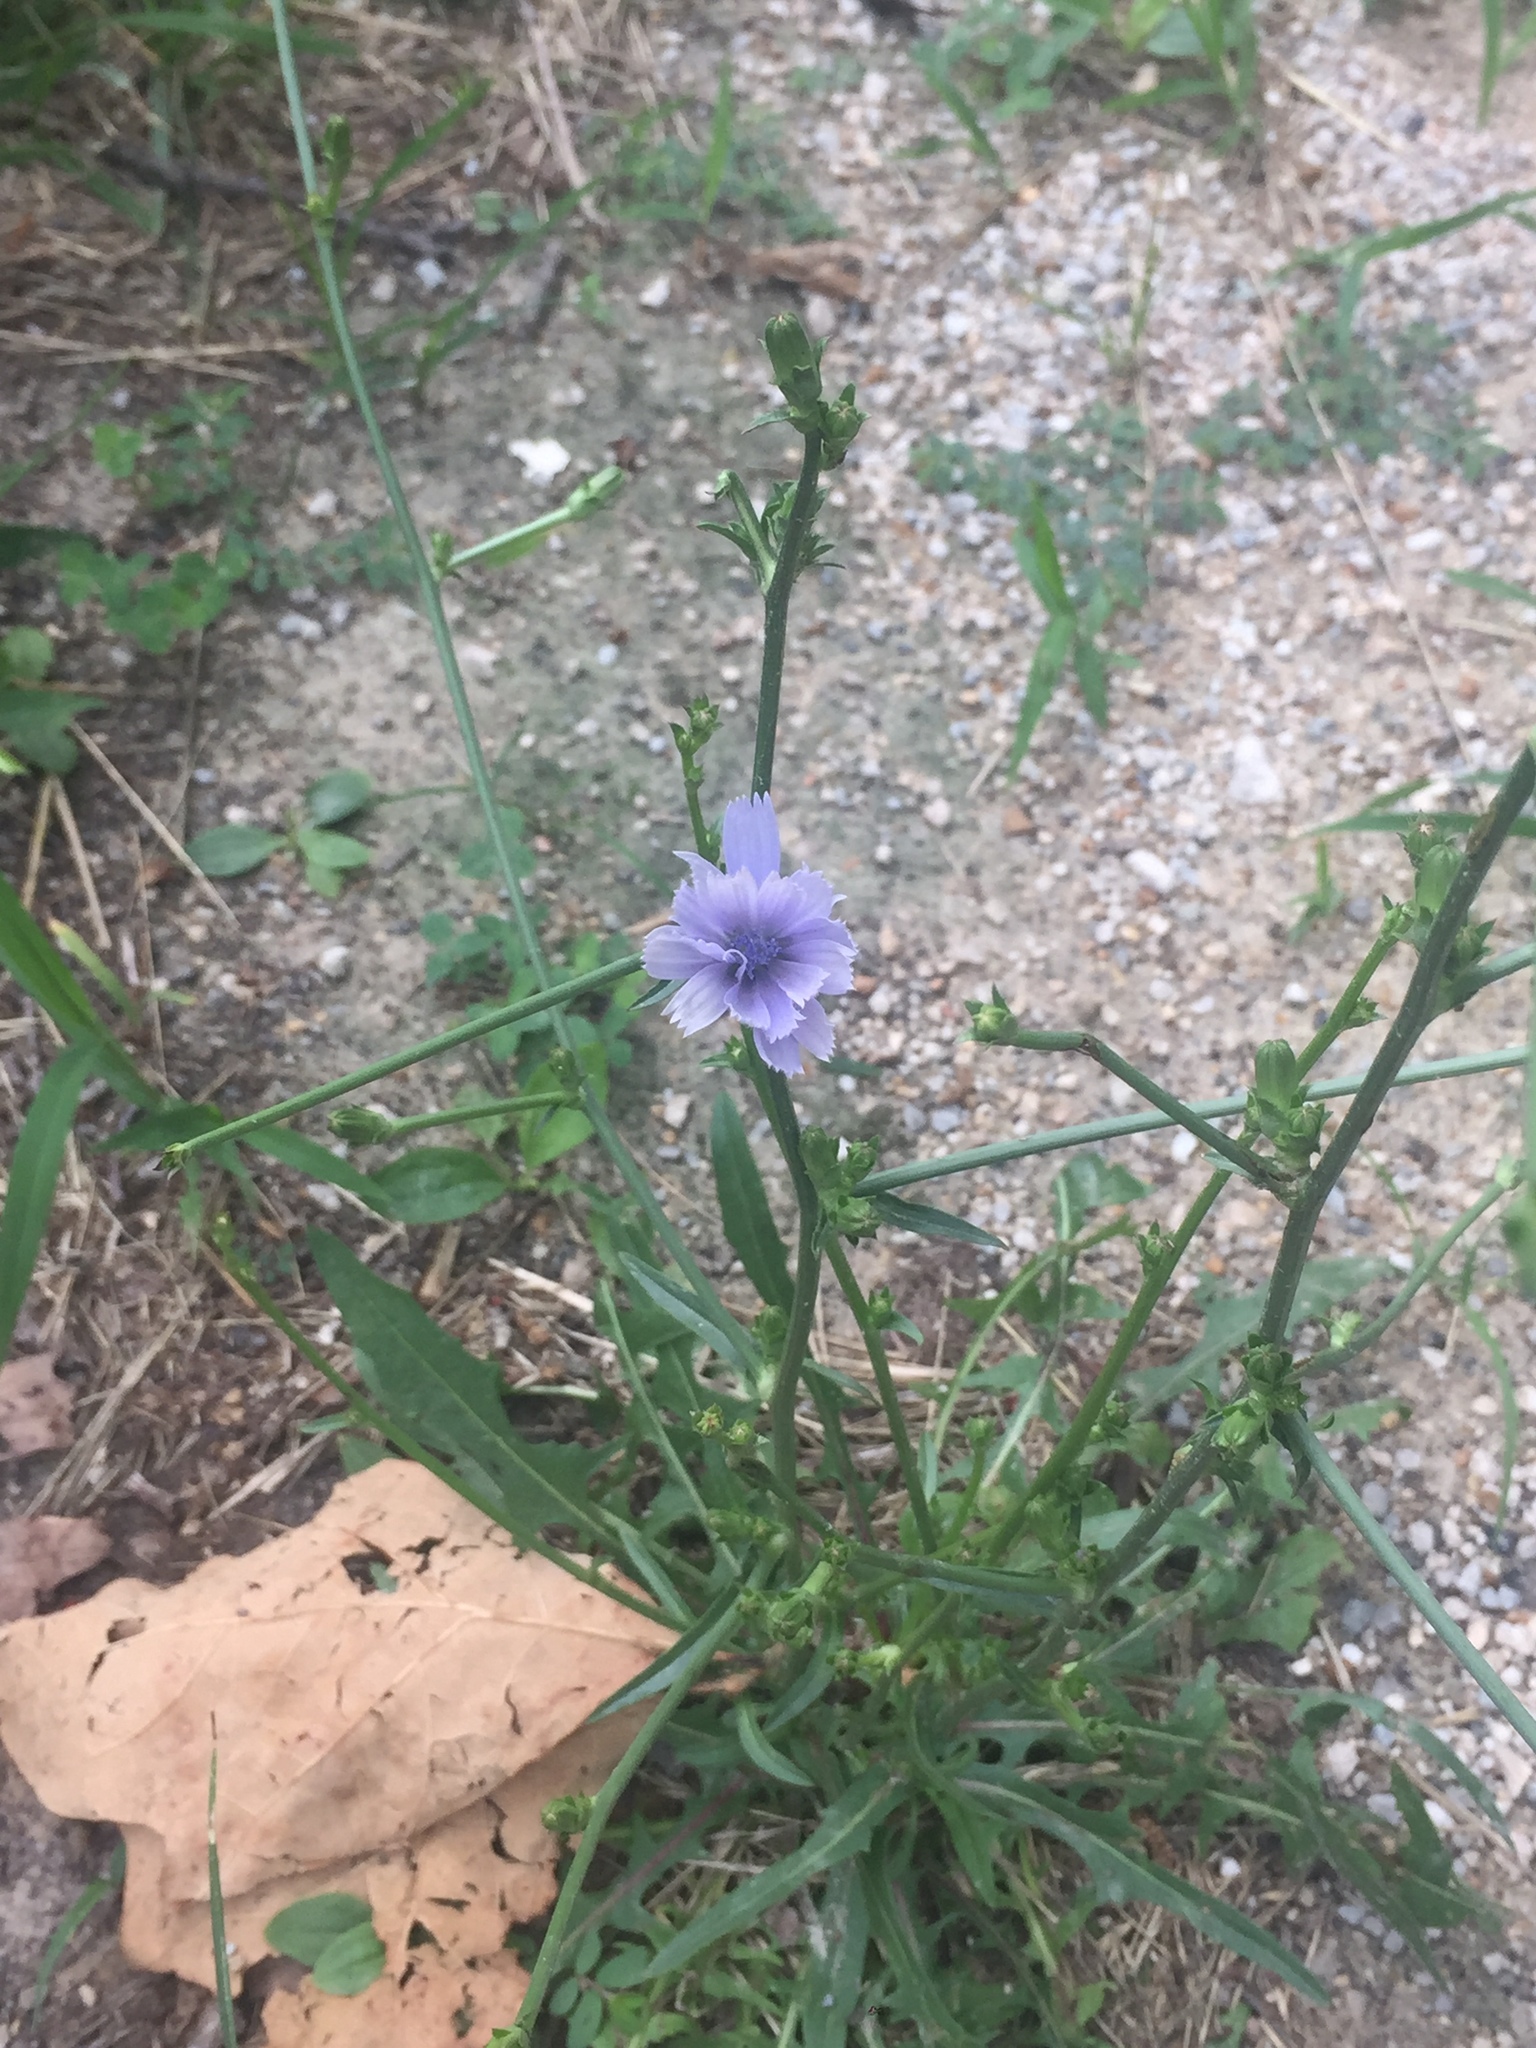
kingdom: Plantae
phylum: Tracheophyta
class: Magnoliopsida
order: Asterales
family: Asteraceae
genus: Cichorium
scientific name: Cichorium intybus
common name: Chicory
